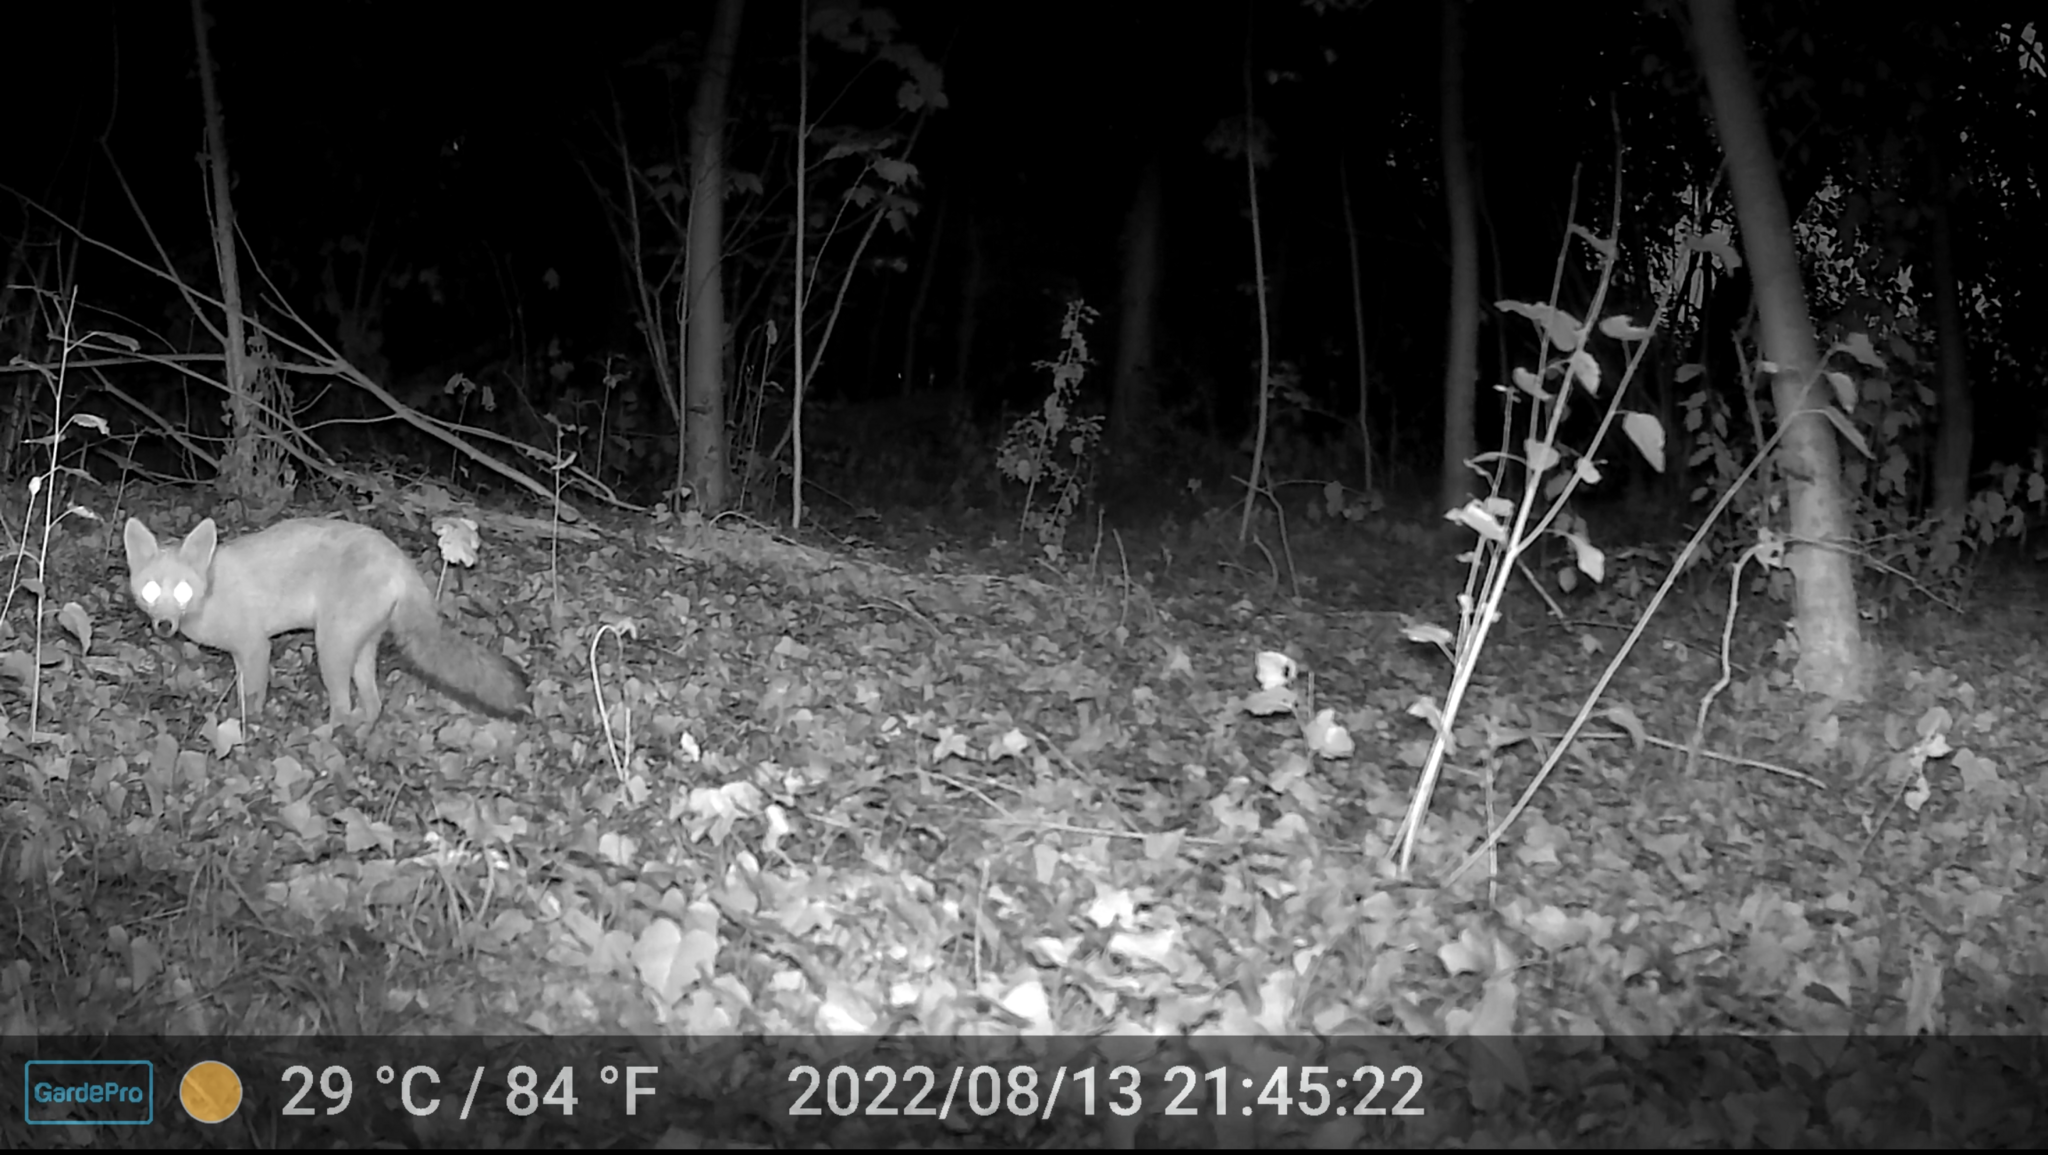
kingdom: Animalia
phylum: Chordata
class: Mammalia
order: Carnivora
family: Canidae
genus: Vulpes
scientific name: Vulpes vulpes
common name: Red fox
